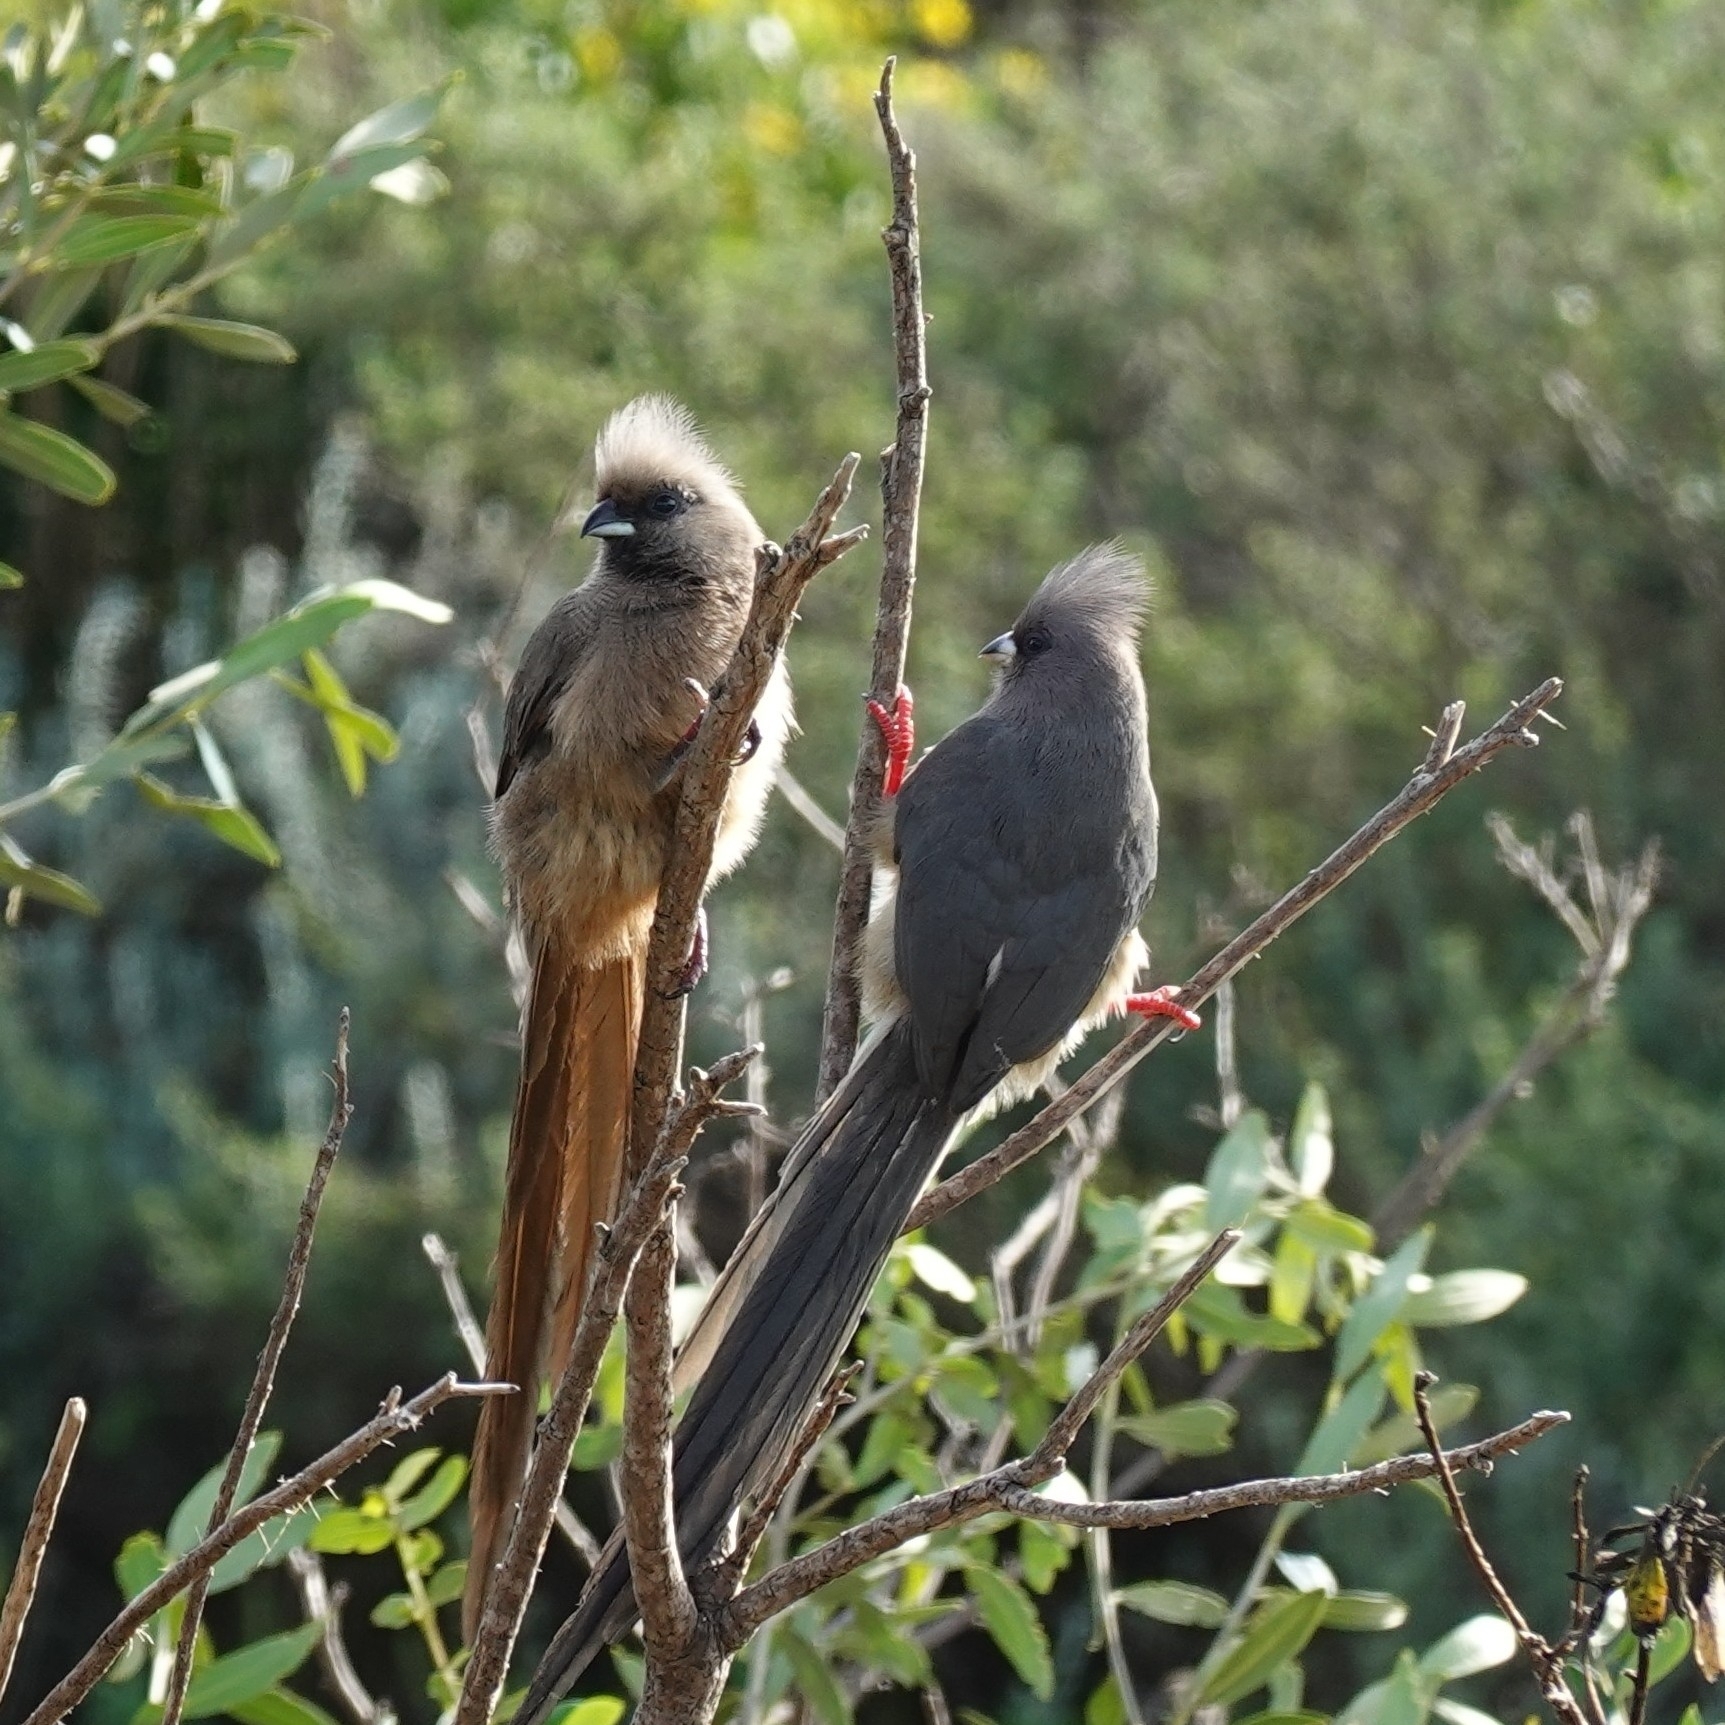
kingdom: Animalia
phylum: Chordata
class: Aves
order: Coliiformes
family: Coliidae
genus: Colius
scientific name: Colius colius
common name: White-backed mousebird
